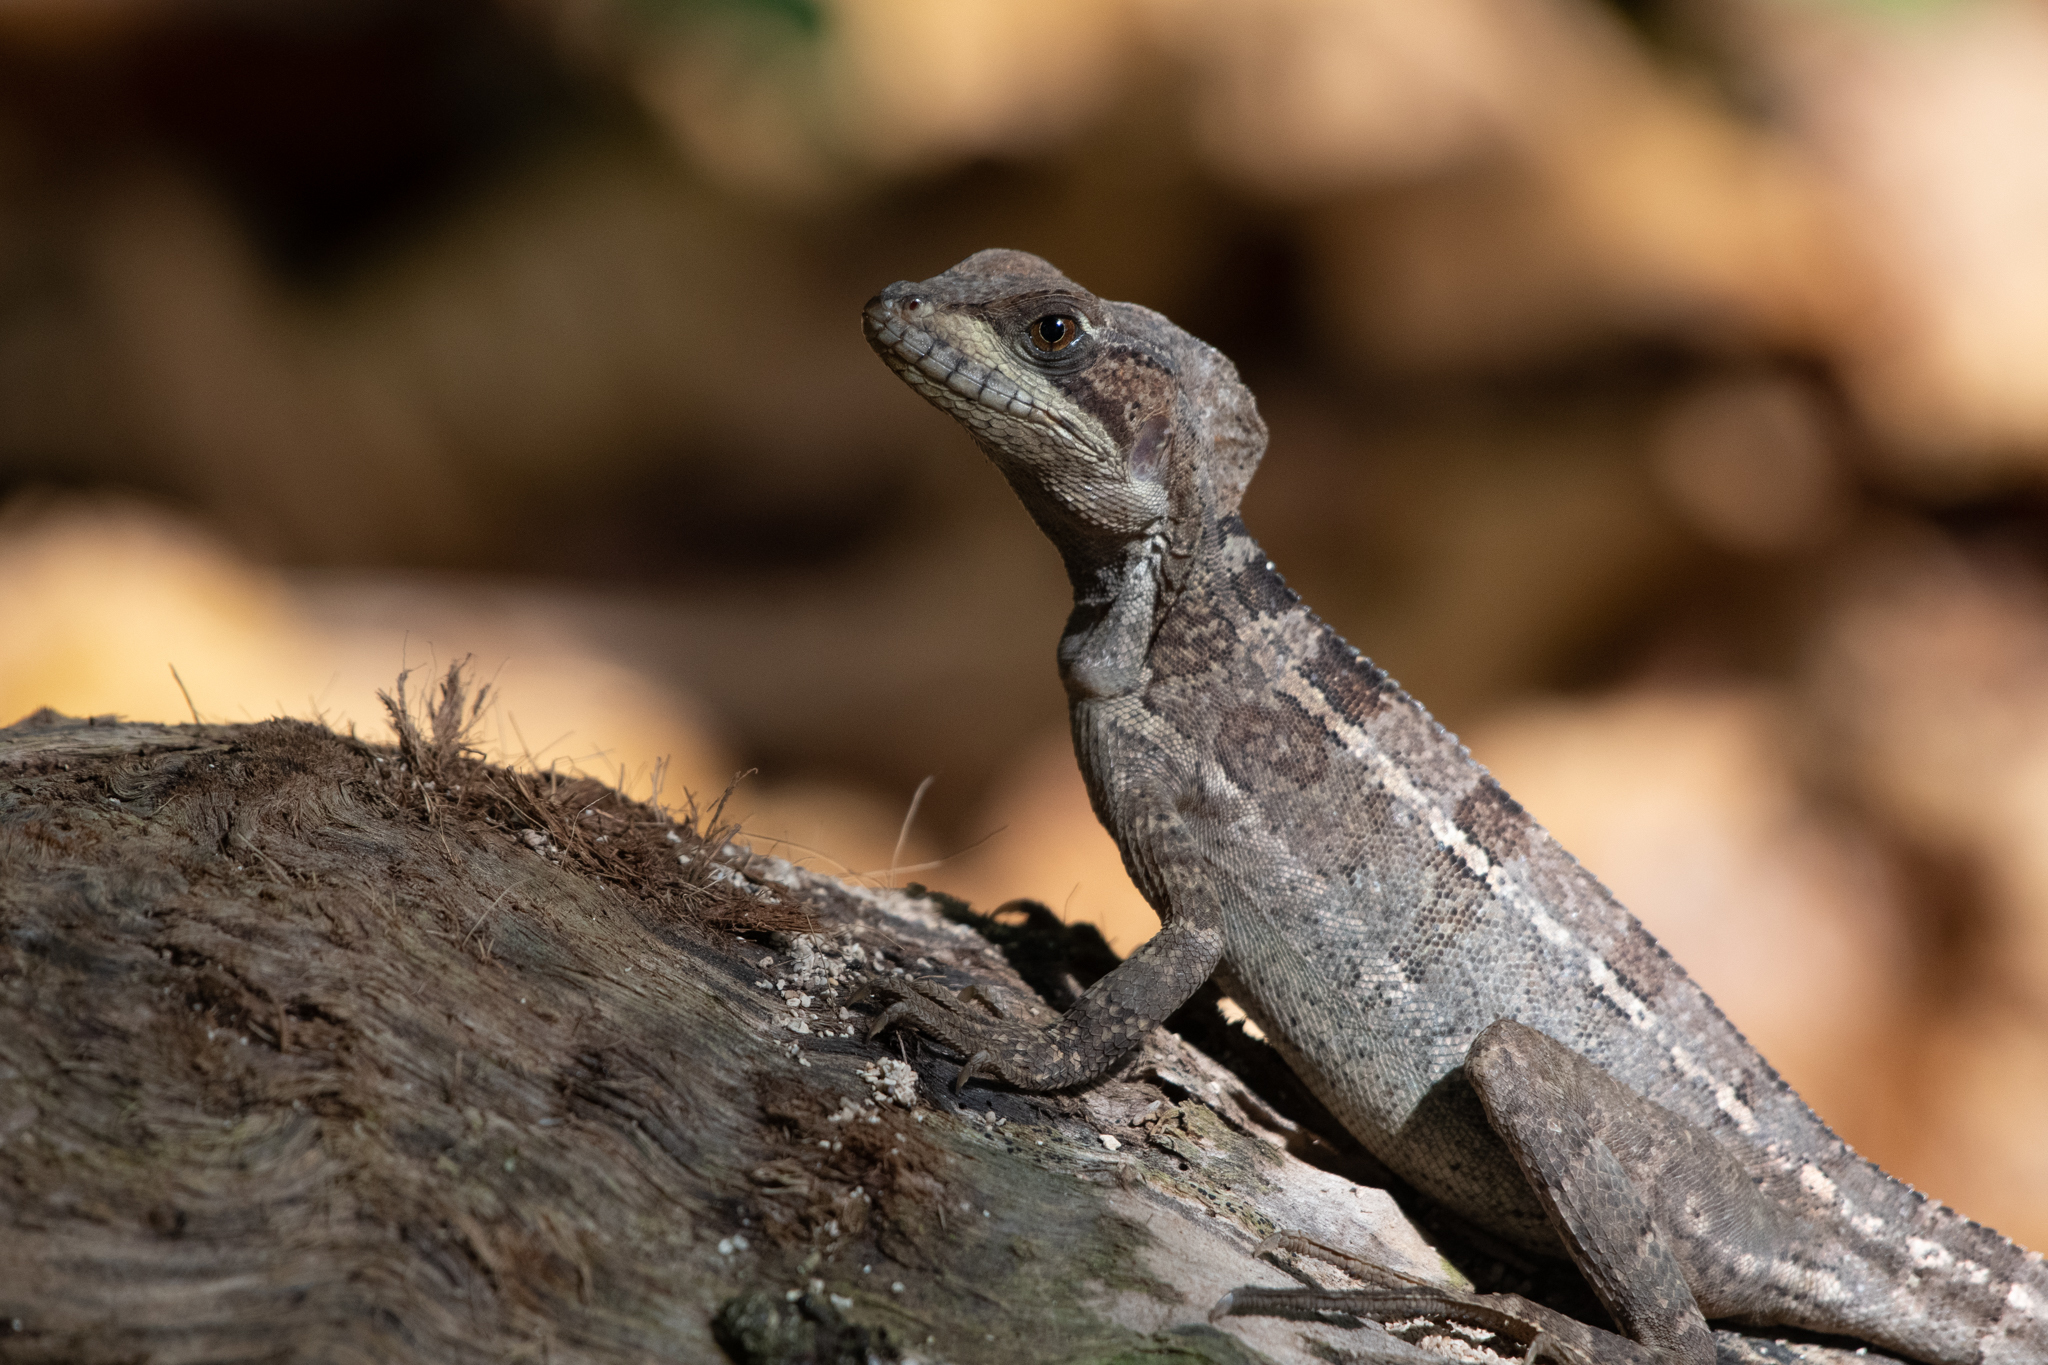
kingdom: Animalia
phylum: Chordata
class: Squamata
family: Corytophanidae
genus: Basiliscus
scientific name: Basiliscus vittatus
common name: Brown basilisk
